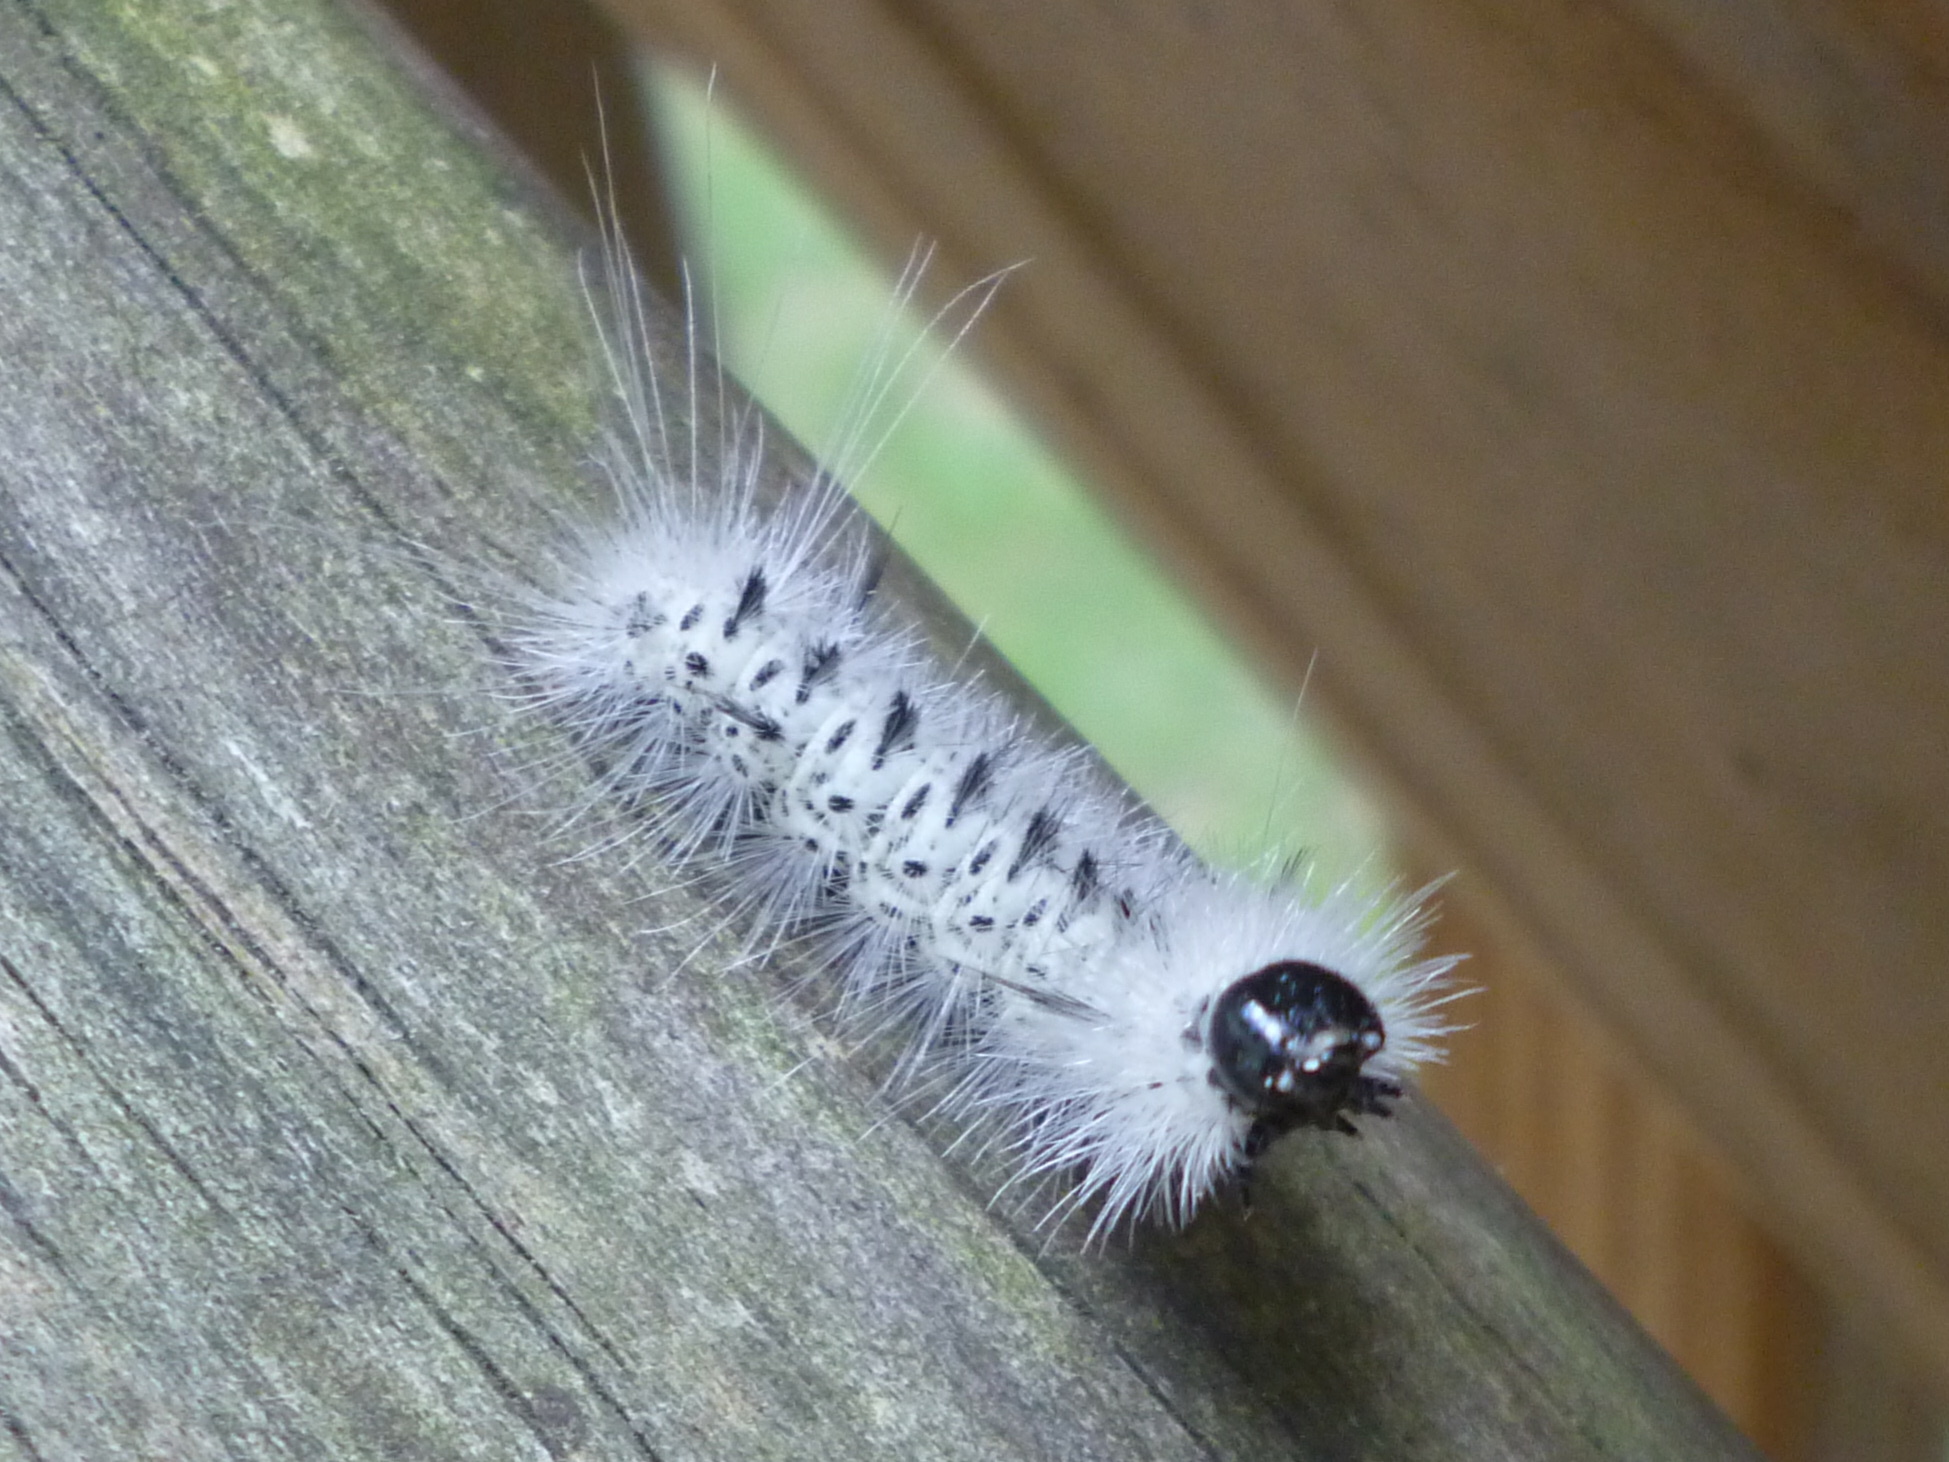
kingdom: Animalia
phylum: Arthropoda
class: Insecta
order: Lepidoptera
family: Erebidae
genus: Lophocampa
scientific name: Lophocampa caryae
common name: Hickory tussock moth
